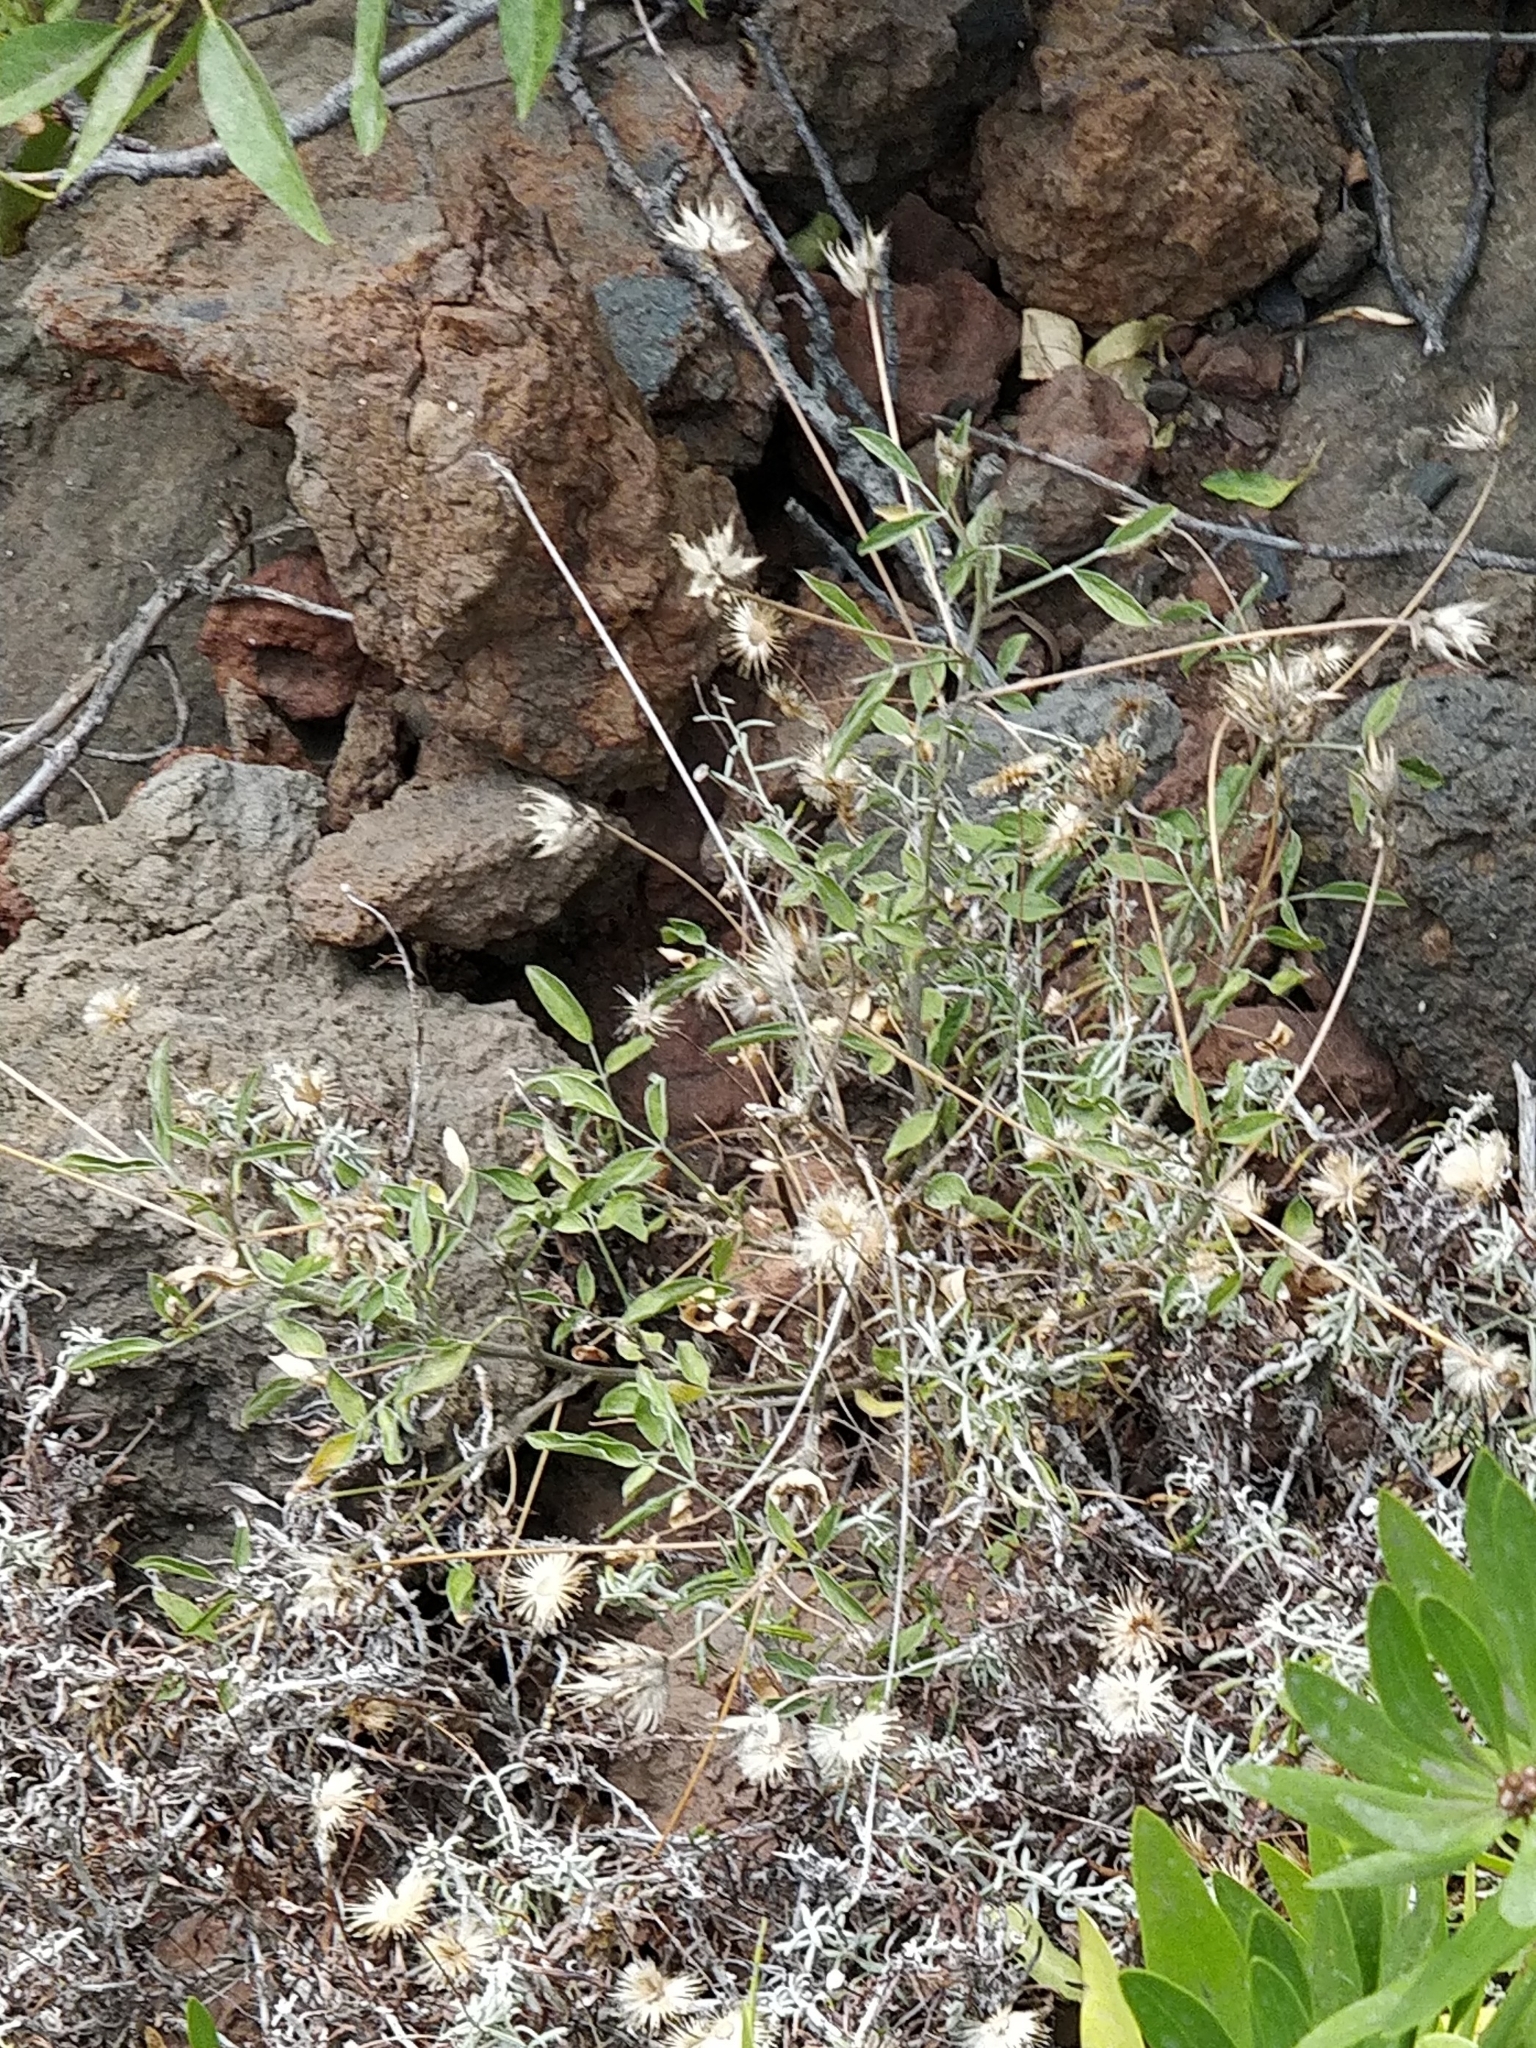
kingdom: Plantae
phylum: Tracheophyta
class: Magnoliopsida
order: Asterales
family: Asteraceae
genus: Phagnalon
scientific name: Phagnalon saxatile
